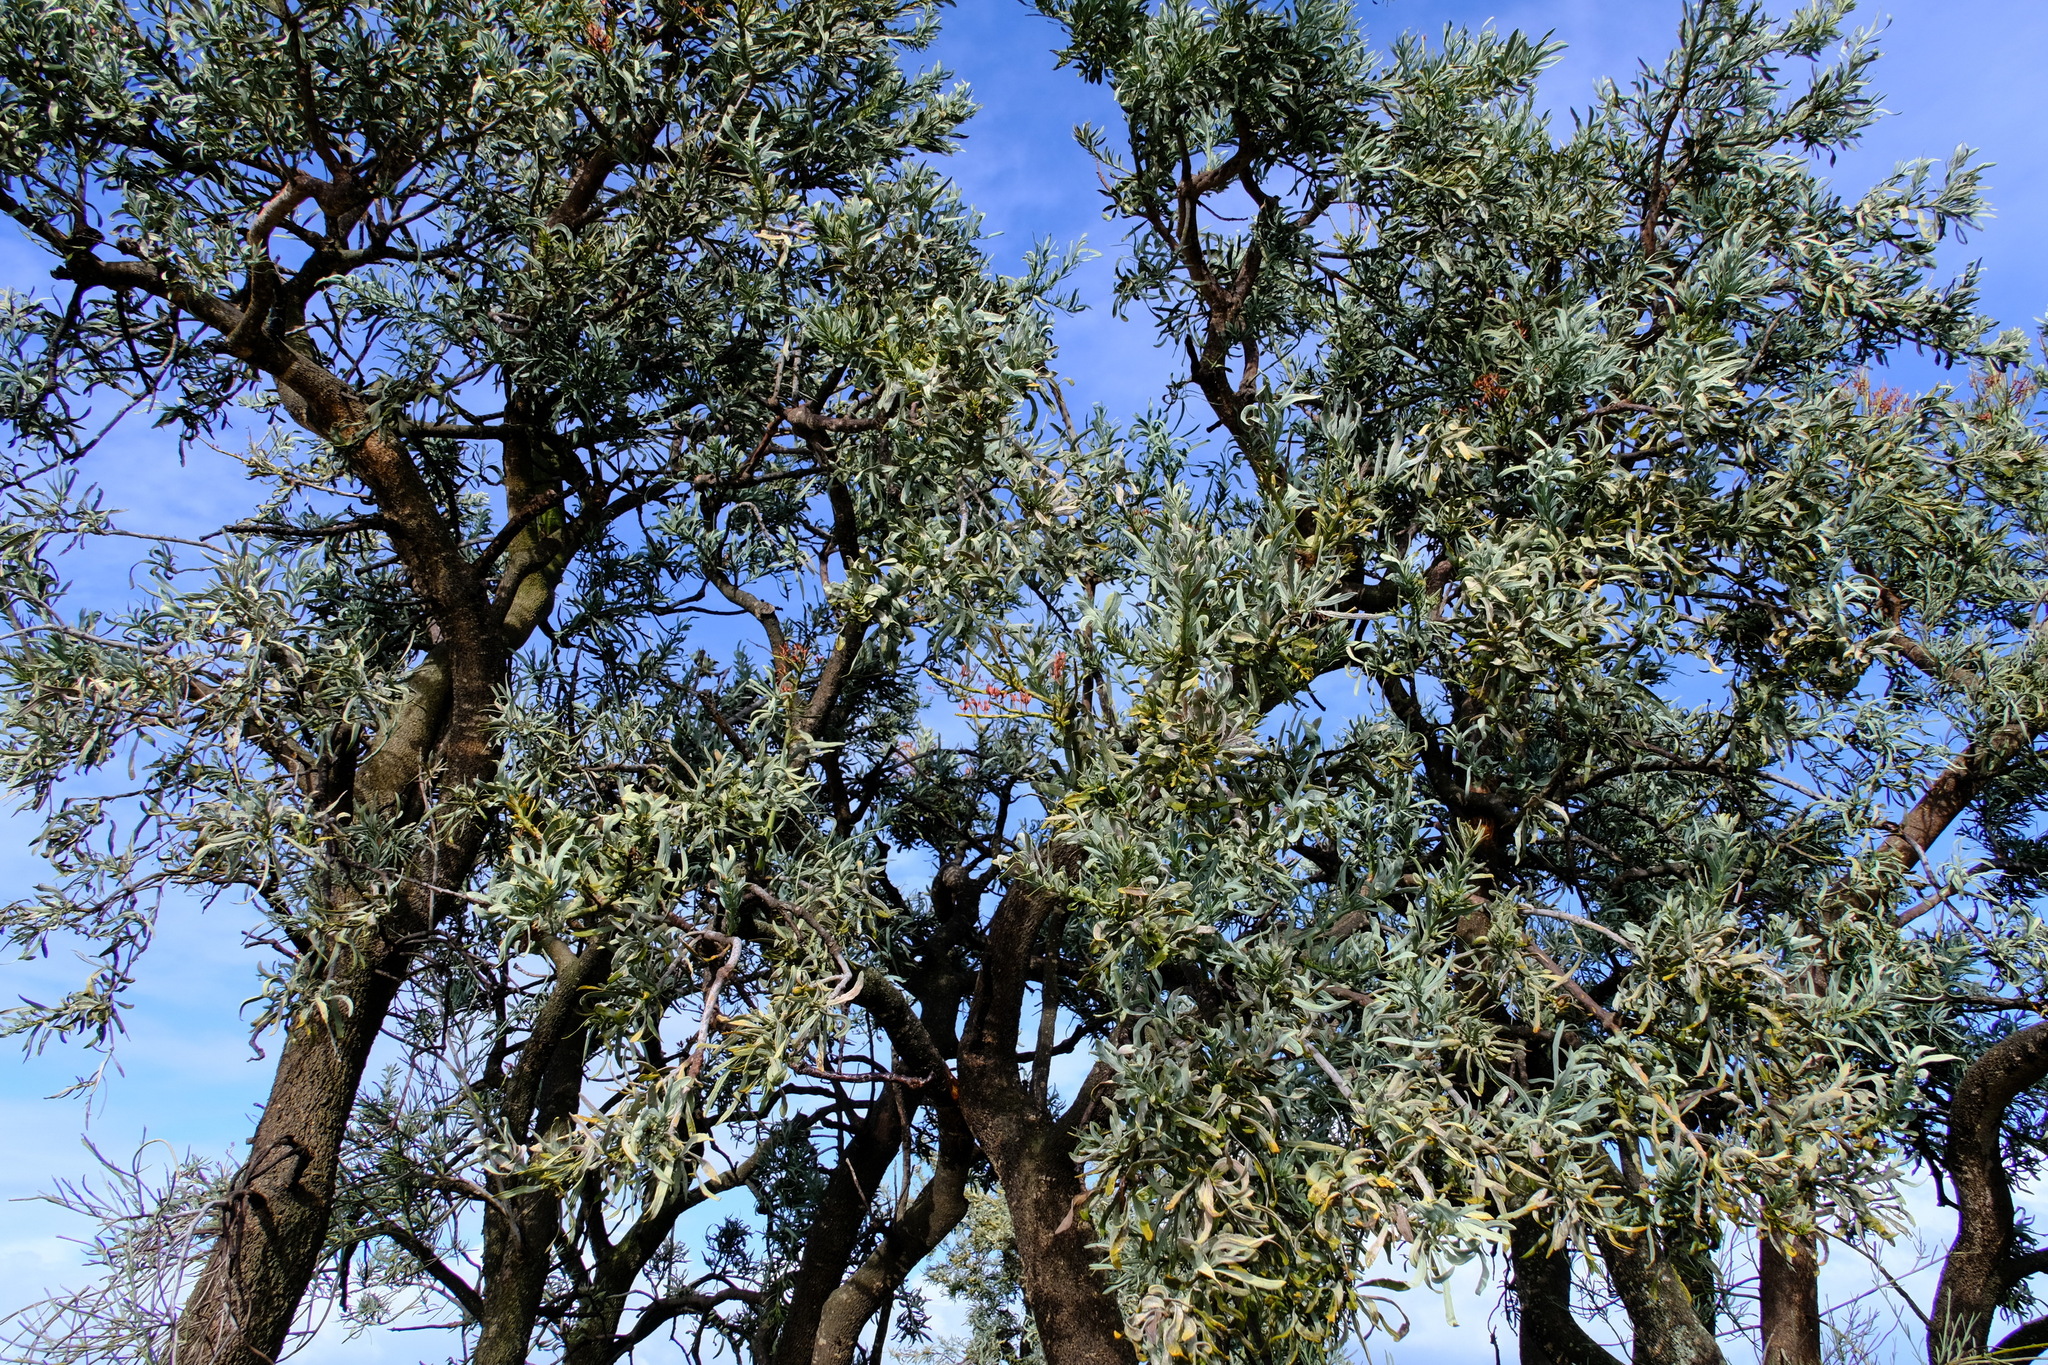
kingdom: Plantae
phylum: Tracheophyta
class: Magnoliopsida
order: Santalales
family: Loranthaceae
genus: Nuytsia
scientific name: Nuytsia floribunda
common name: Western australian christmastree
